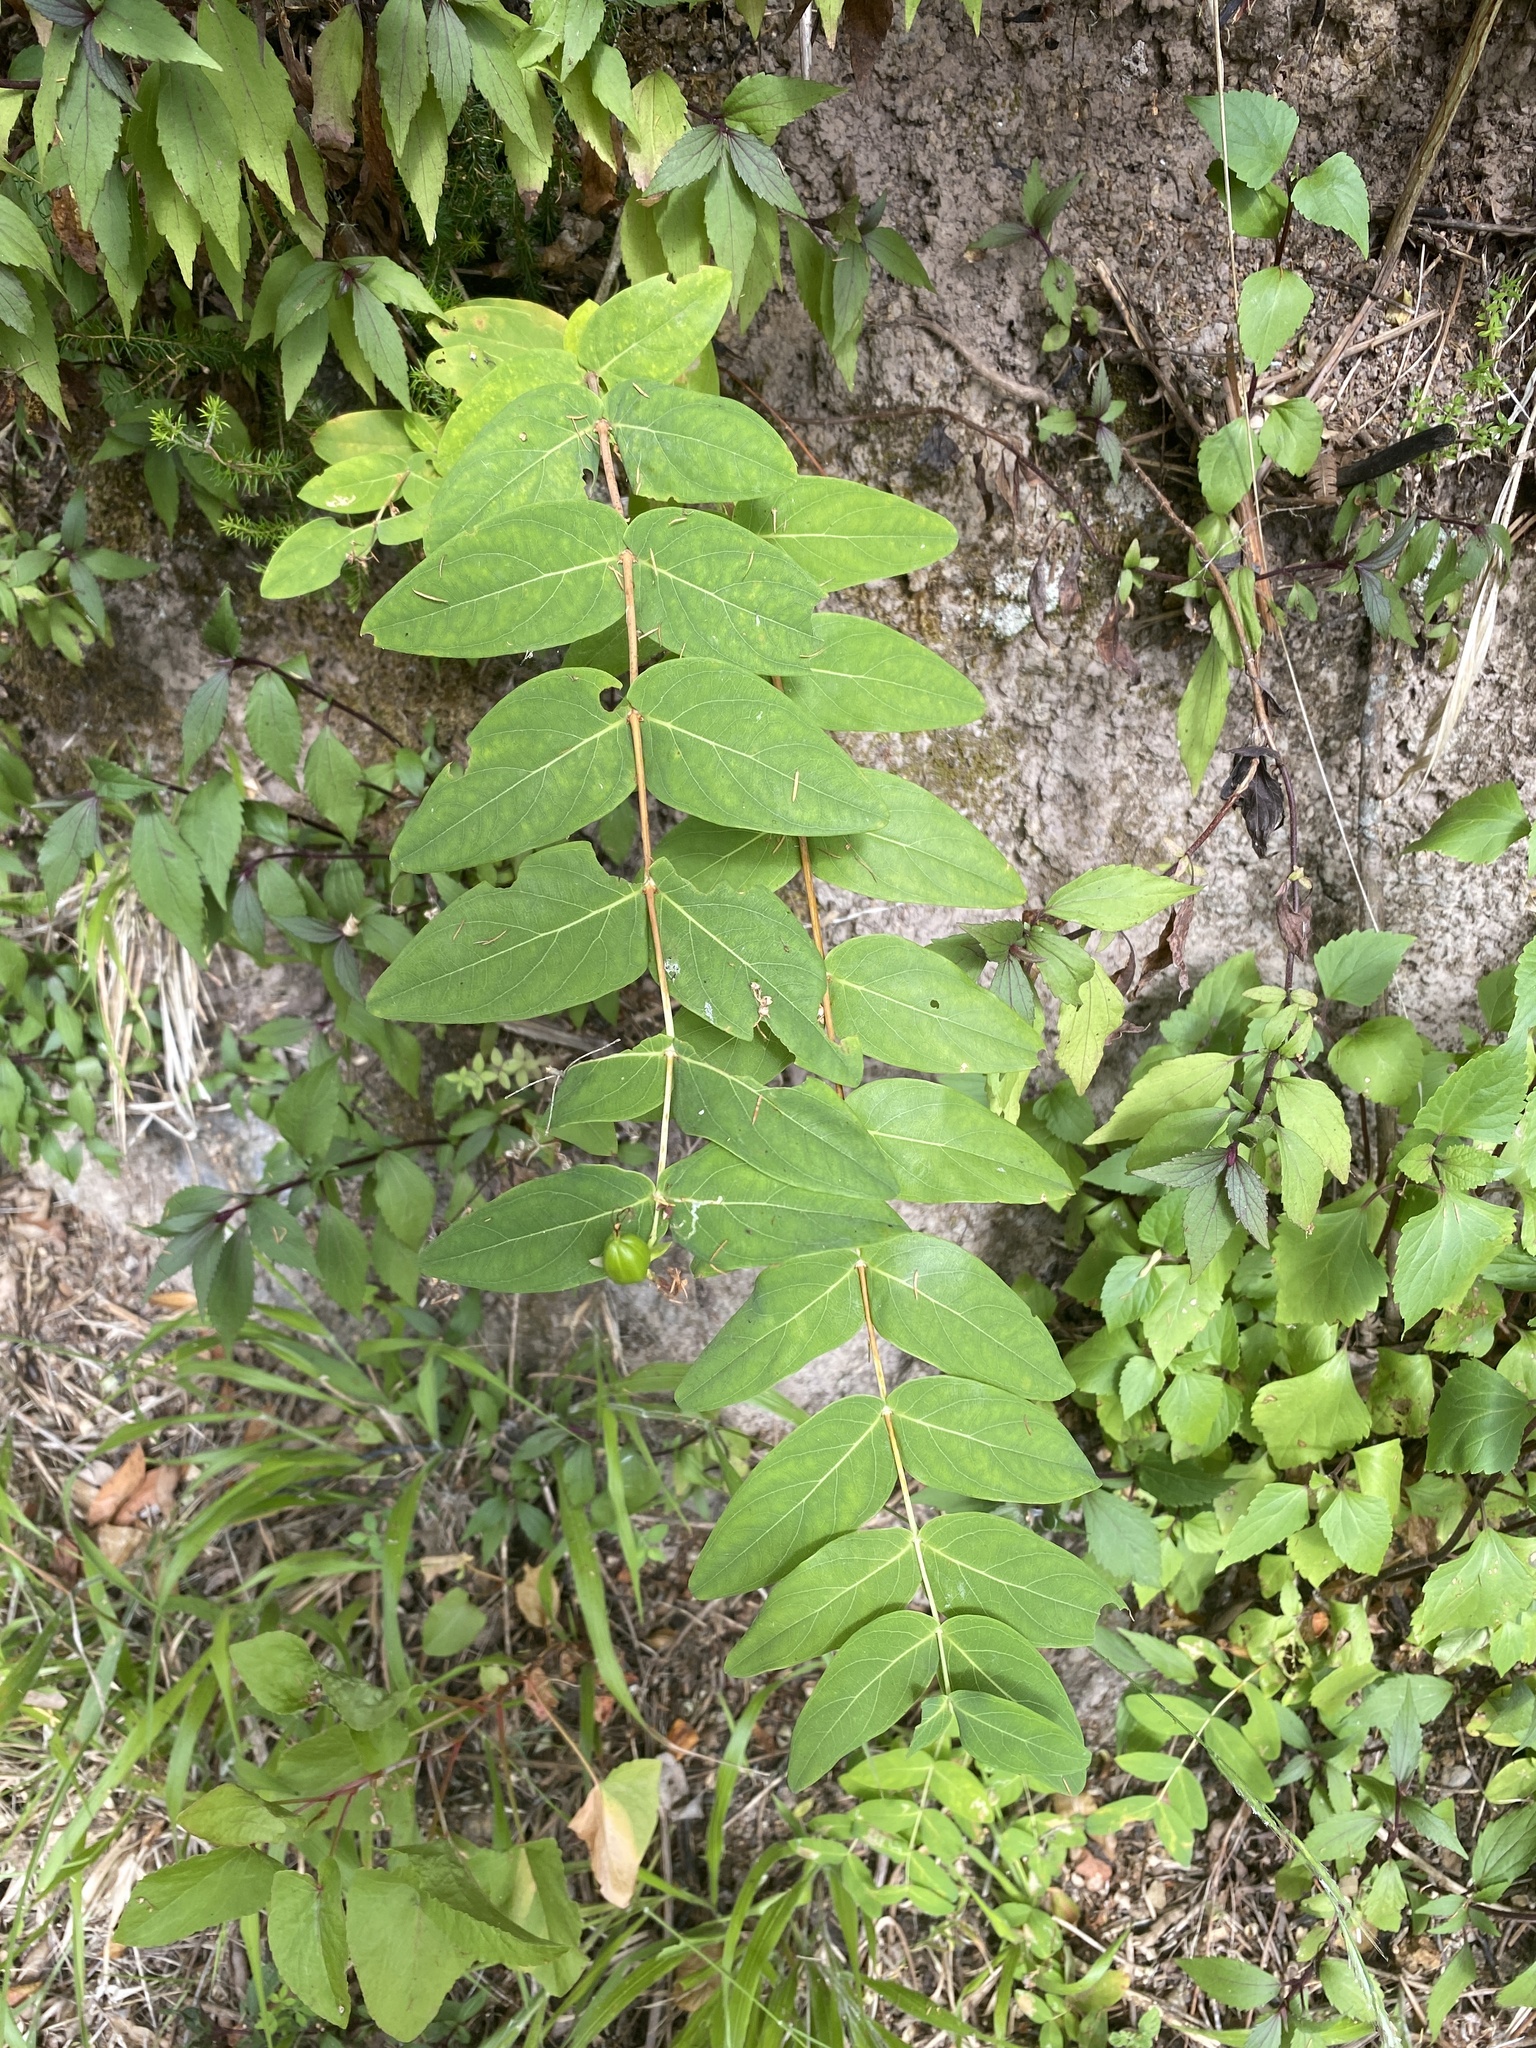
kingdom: Plantae
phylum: Tracheophyta
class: Magnoliopsida
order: Malpighiales
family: Hypericaceae
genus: Hypericum
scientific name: Hypericum grandifolium
